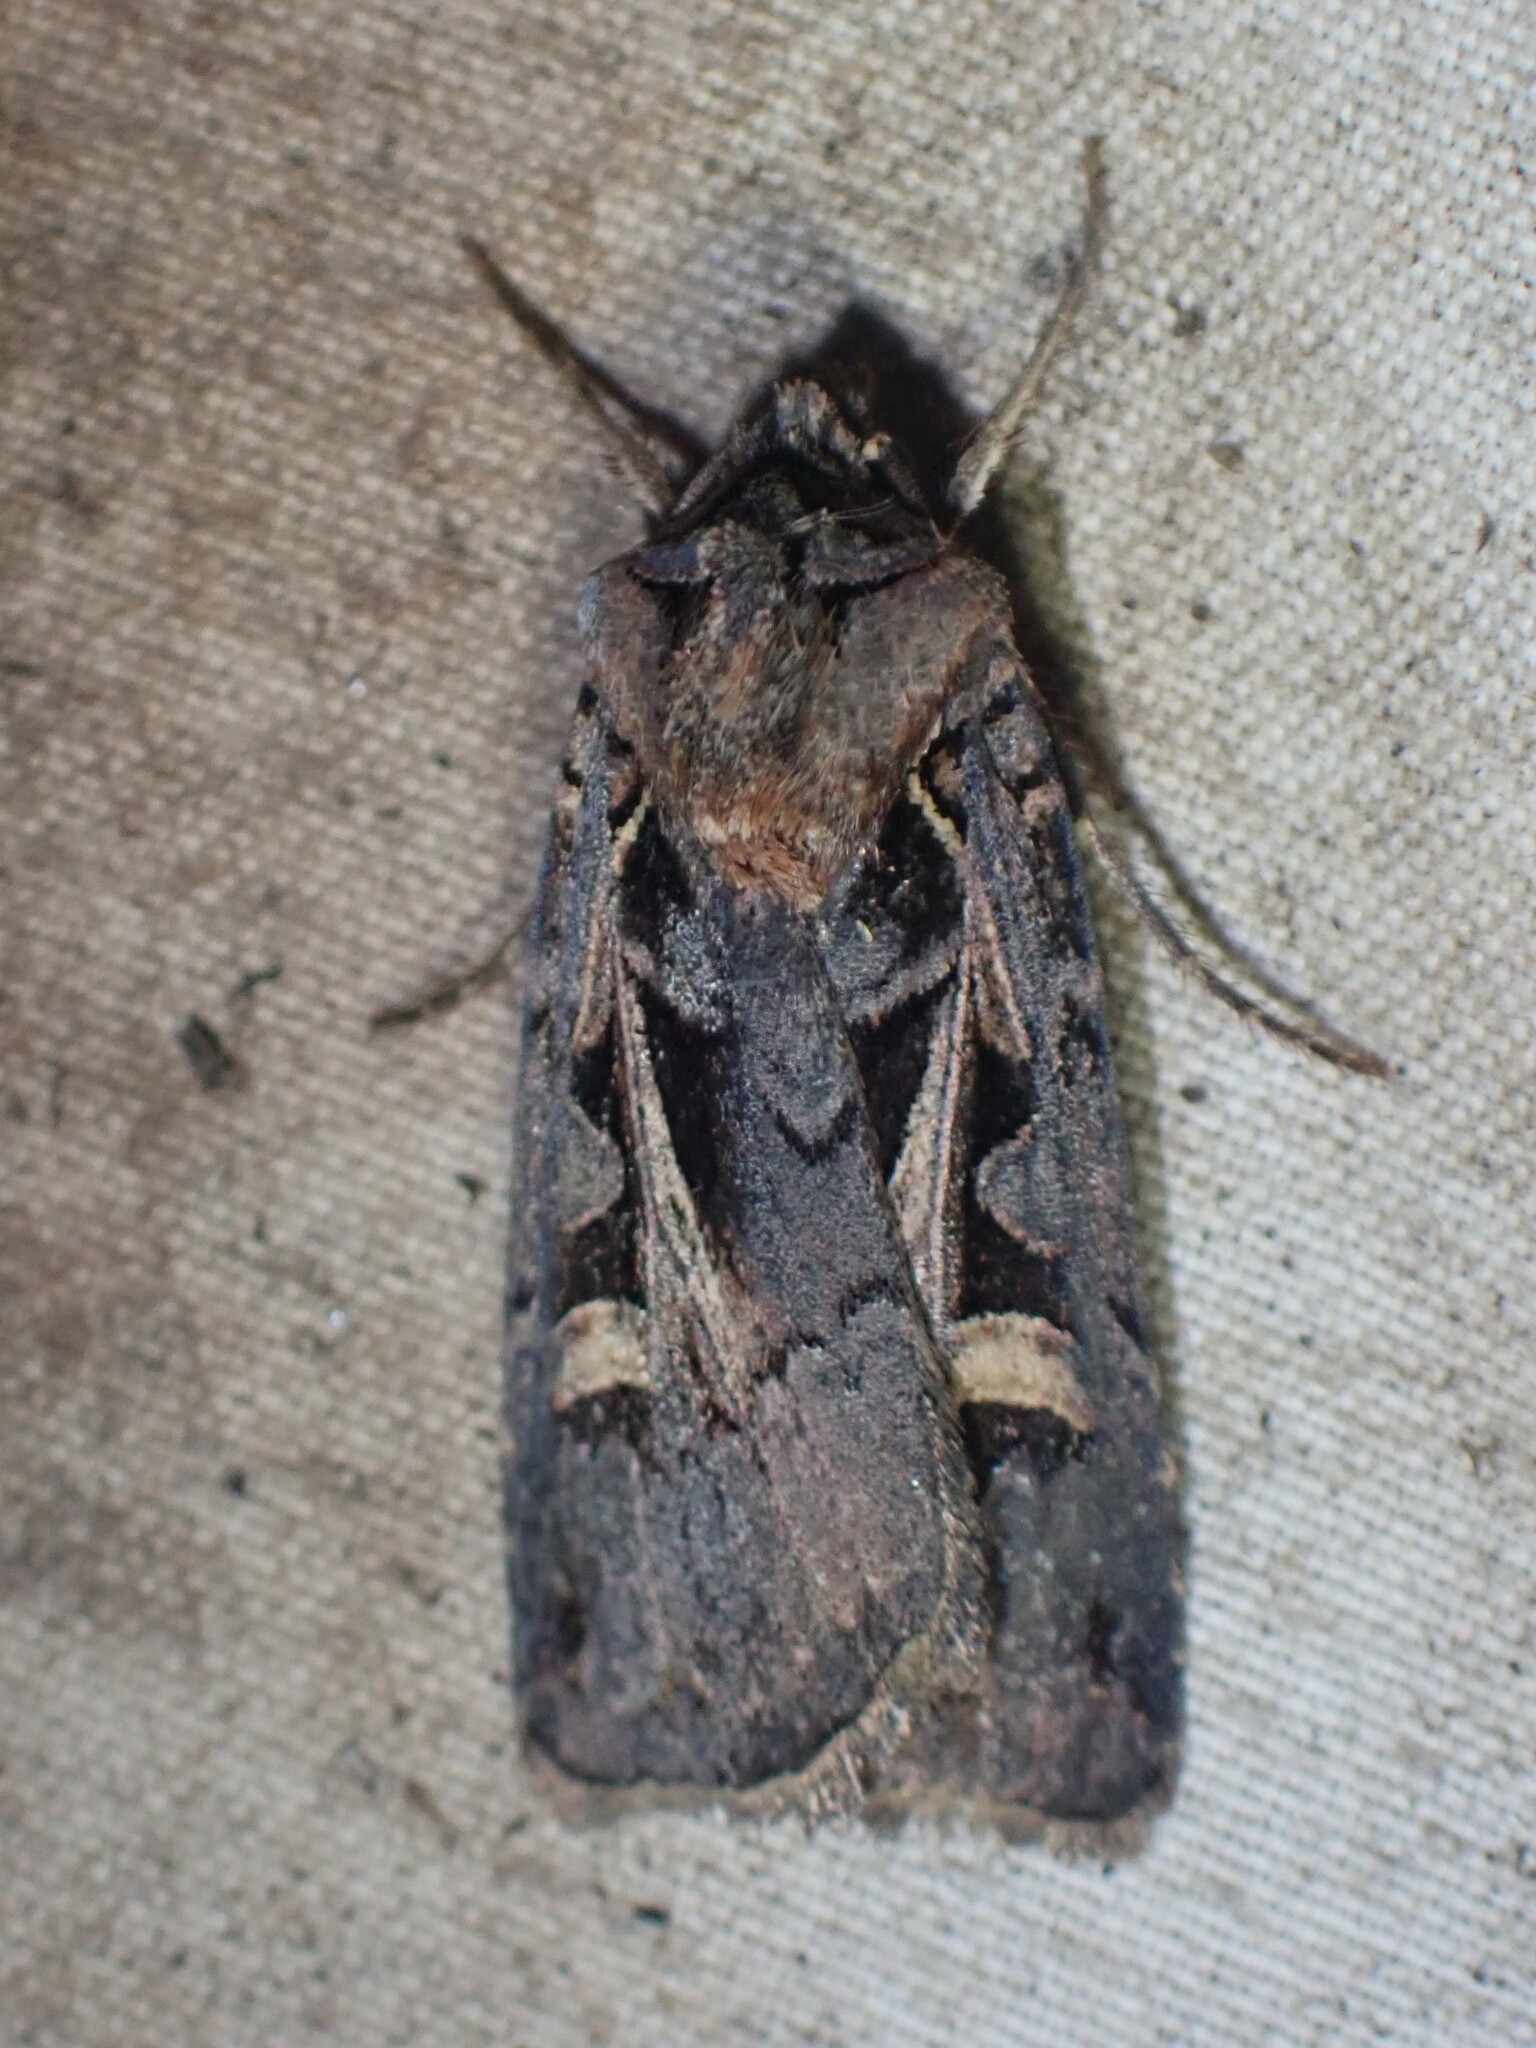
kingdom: Animalia
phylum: Arthropoda
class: Insecta
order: Lepidoptera
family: Noctuidae
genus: Feltia
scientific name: Feltia herilis
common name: Master's dart
